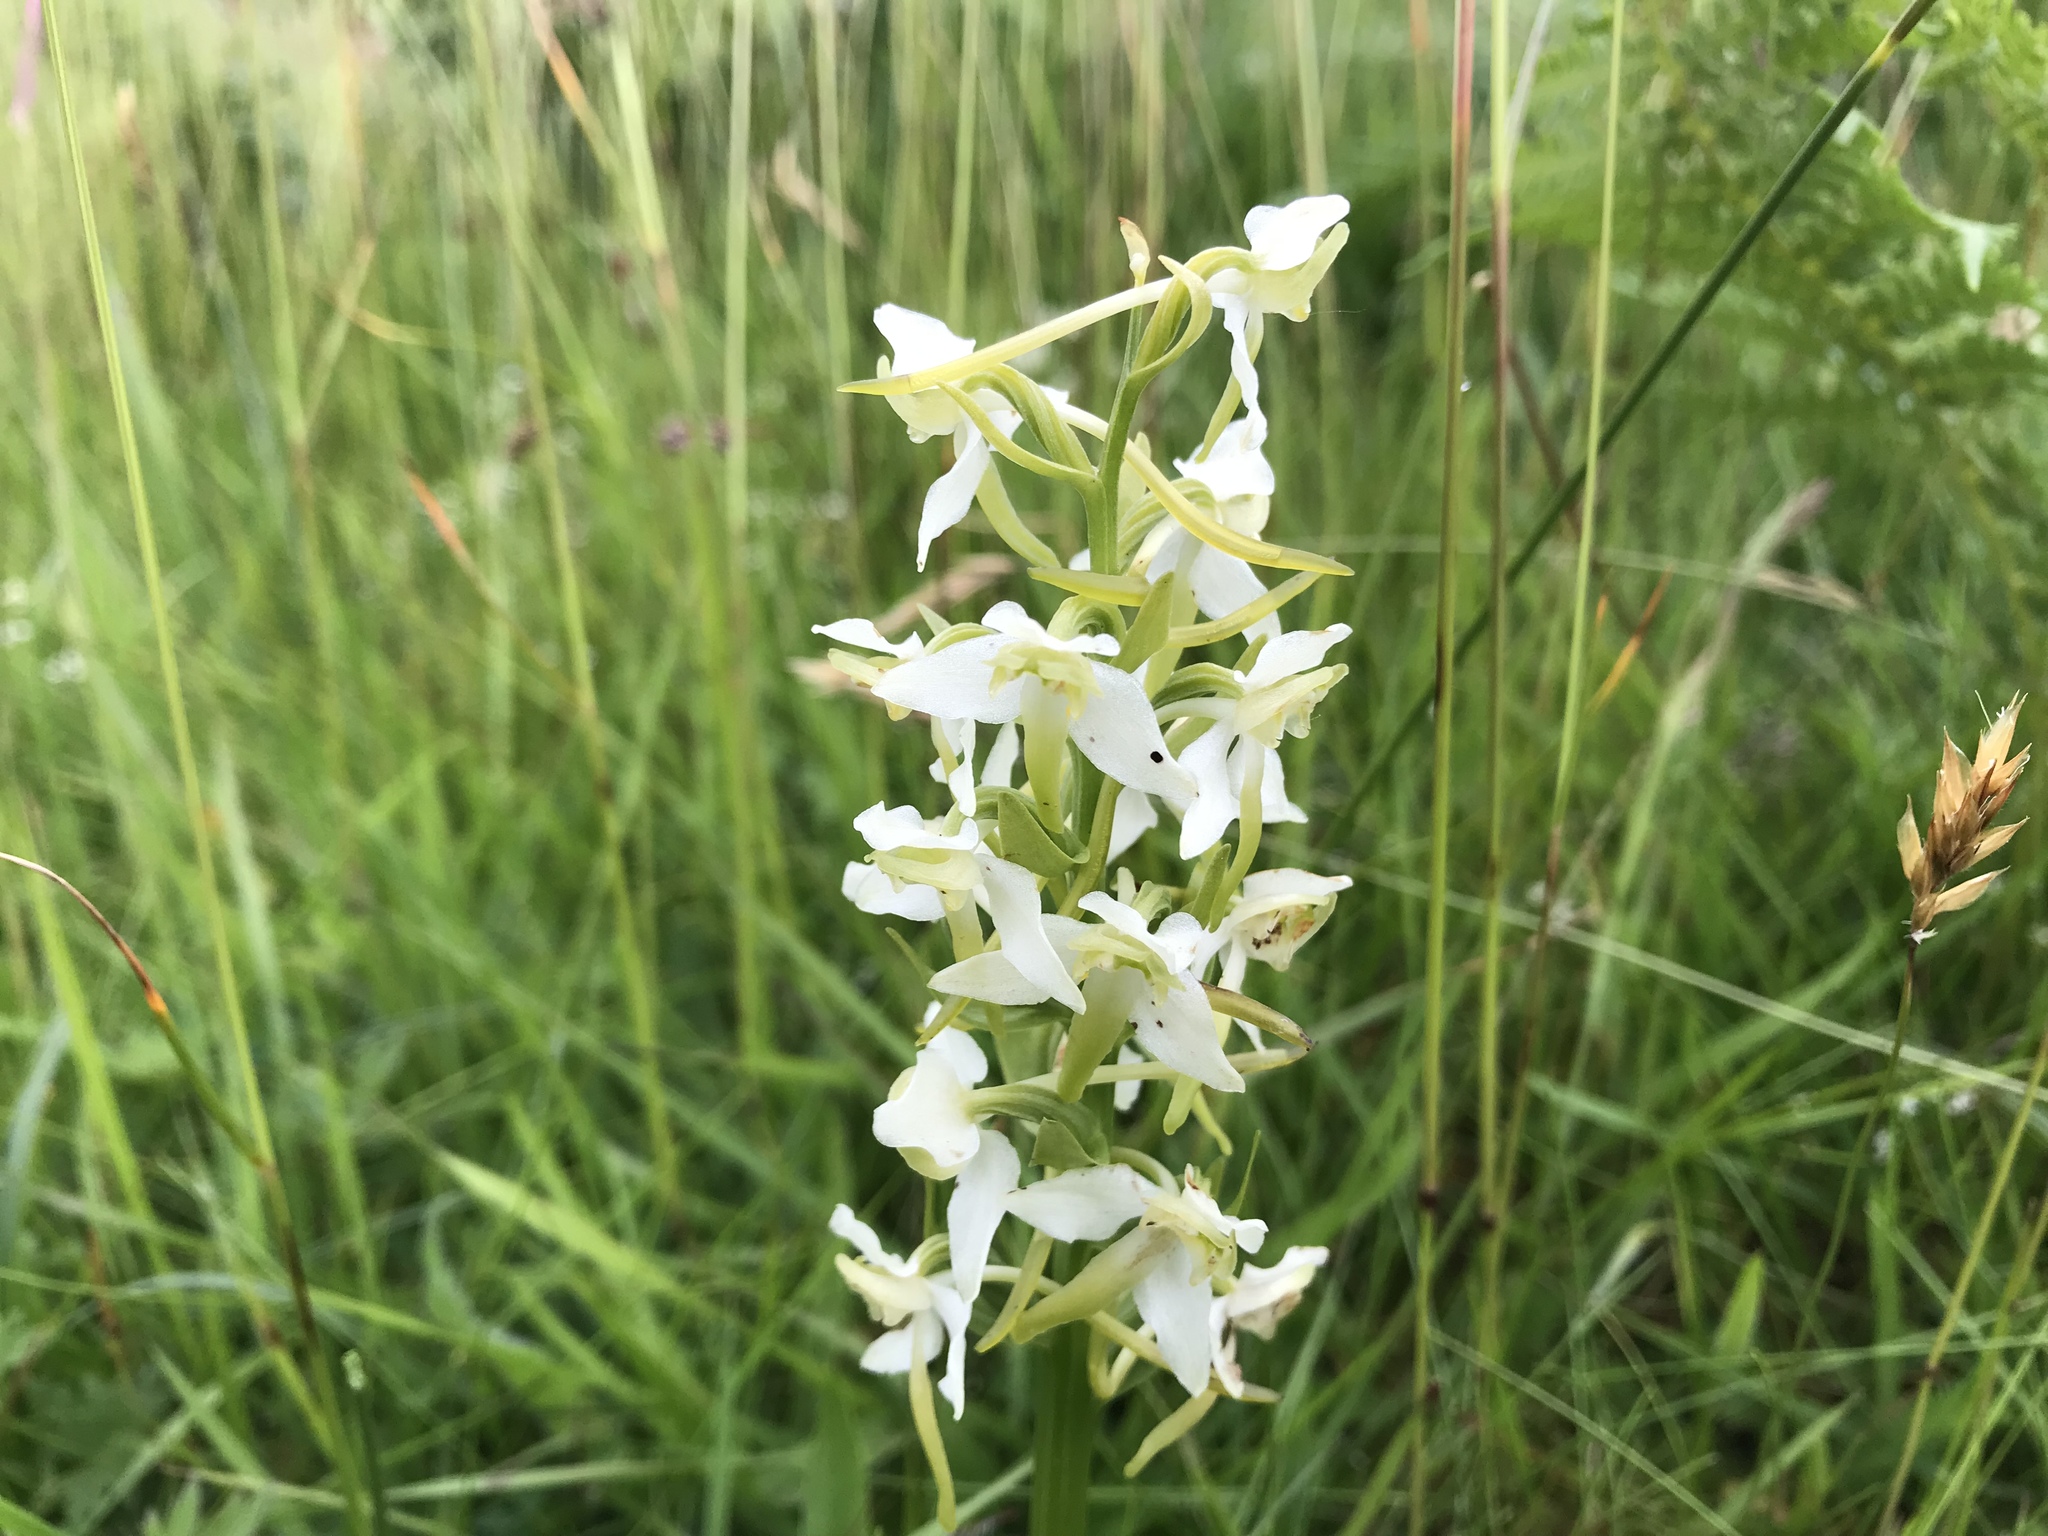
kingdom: Plantae
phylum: Tracheophyta
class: Liliopsida
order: Asparagales
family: Orchidaceae
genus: Platanthera
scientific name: Platanthera chlorantha
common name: Greater butterfly-orchid
